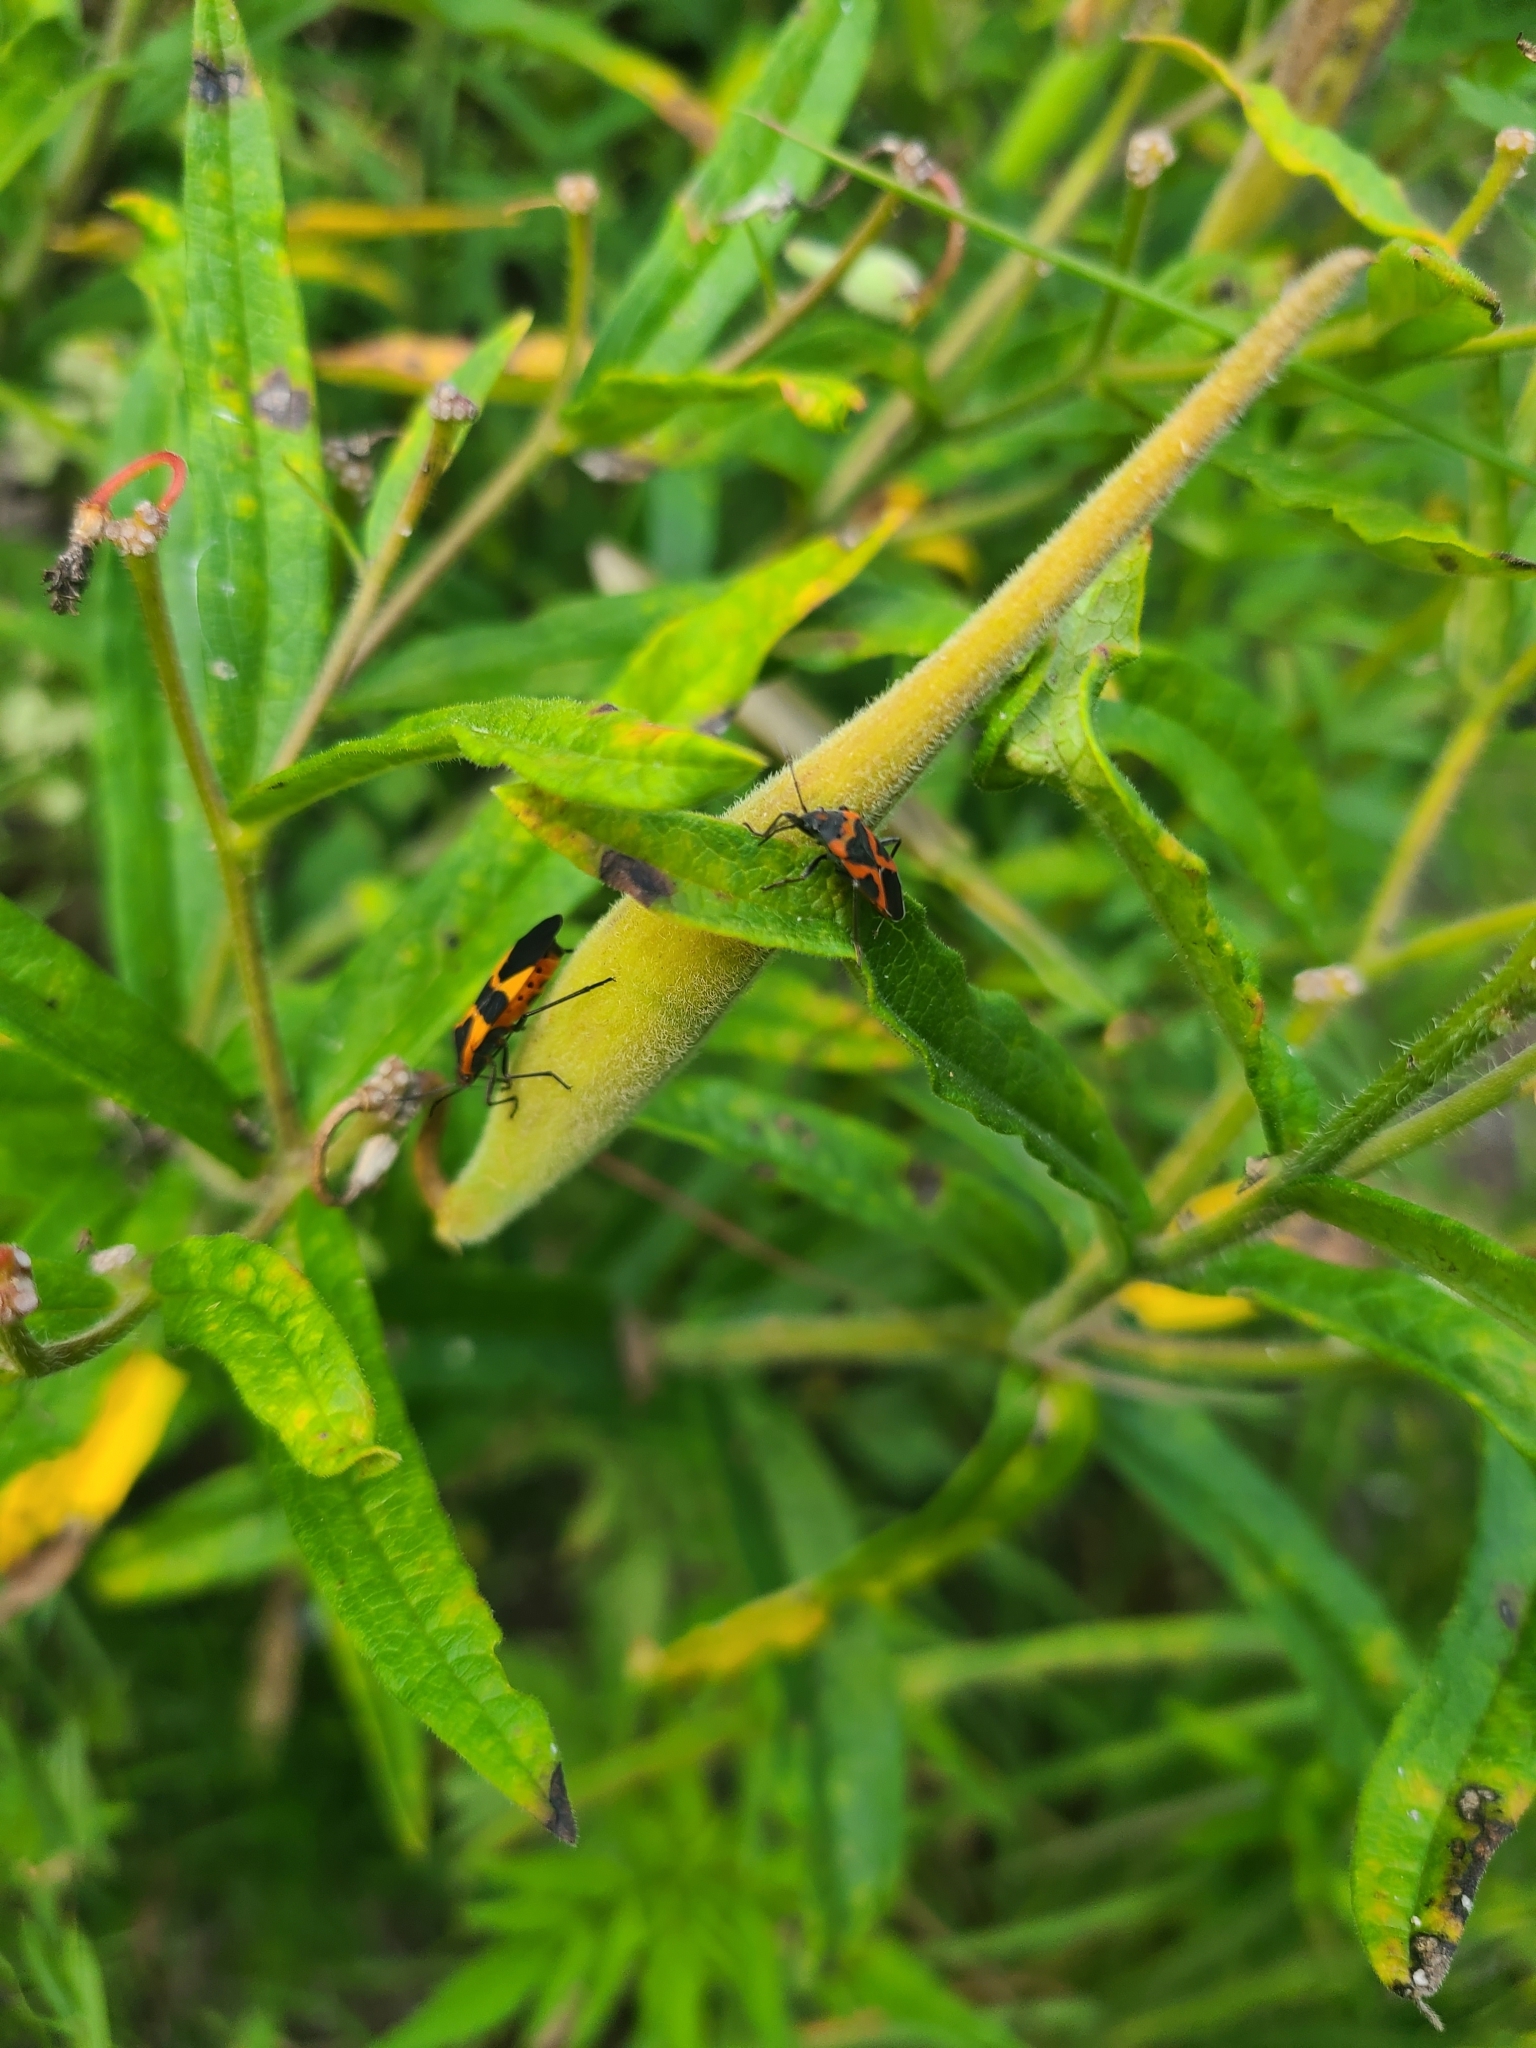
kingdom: Animalia
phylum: Arthropoda
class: Insecta
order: Hemiptera
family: Lygaeidae
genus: Oncopeltus
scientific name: Oncopeltus fasciatus
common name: Large milkweed bug
